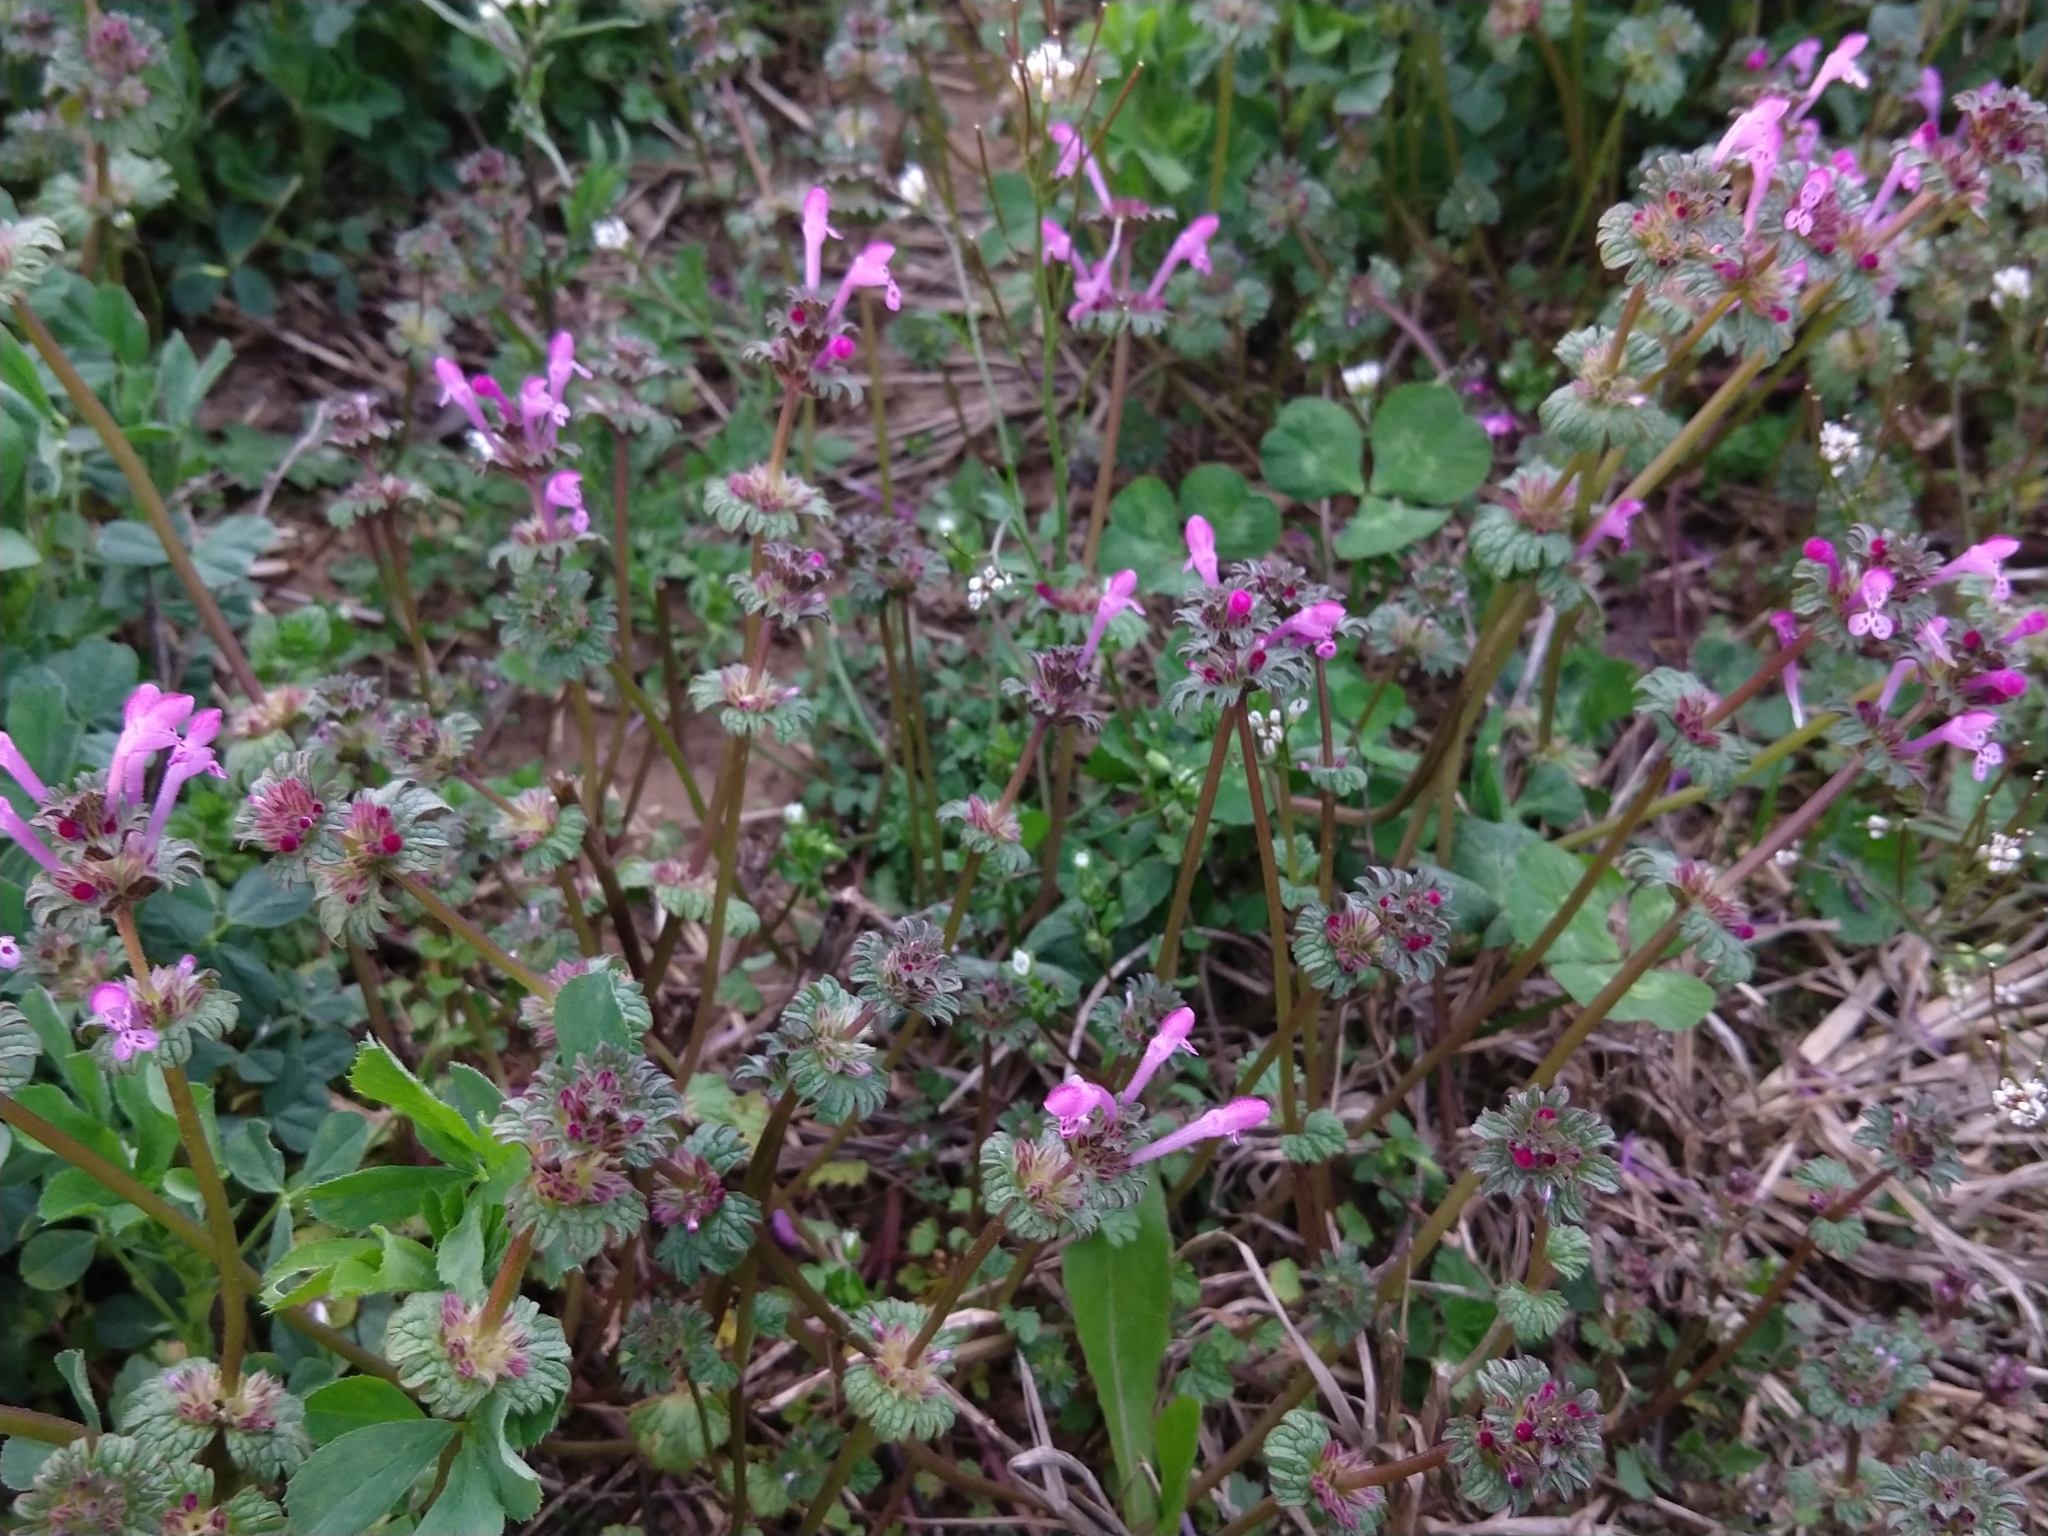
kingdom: Plantae
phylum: Tracheophyta
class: Magnoliopsida
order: Lamiales
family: Lamiaceae
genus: Lamium
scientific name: Lamium amplexicaule
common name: Henbit dead-nettle
